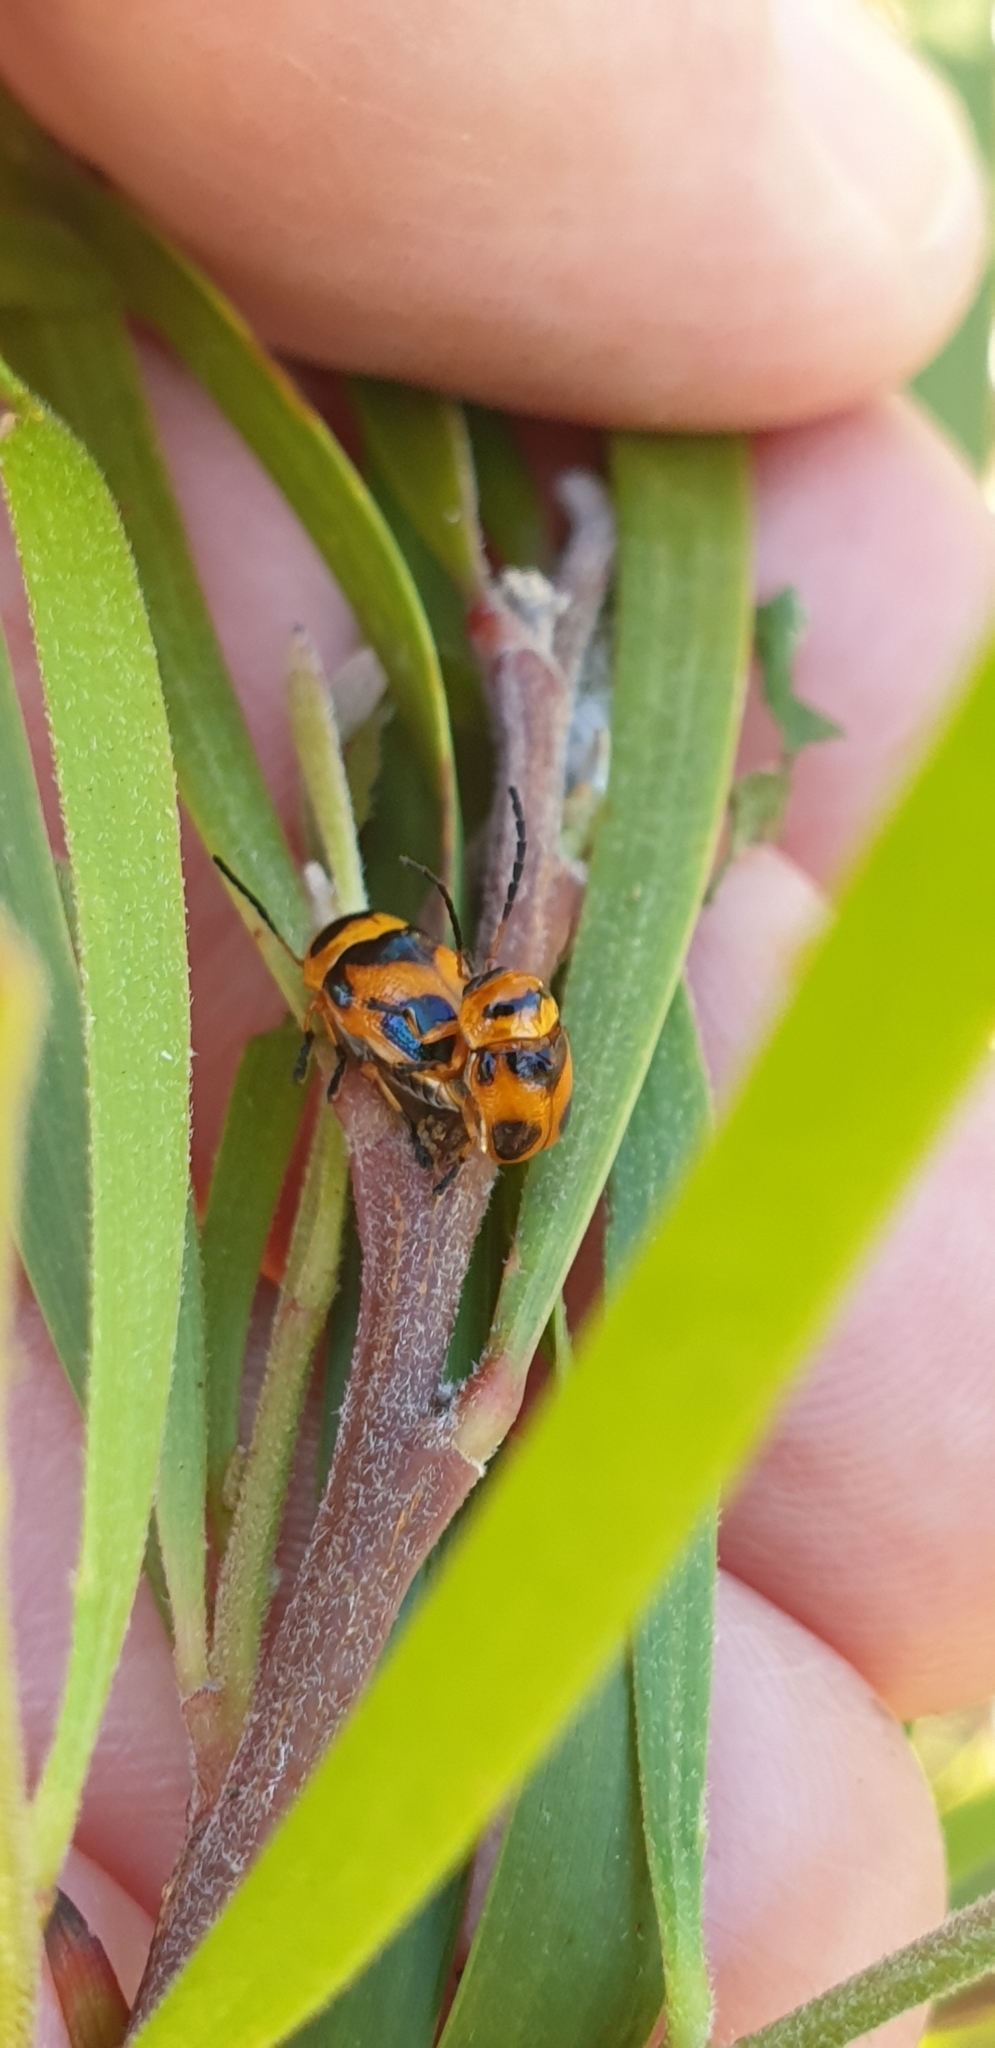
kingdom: Animalia
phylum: Arthropoda
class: Insecta
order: Coleoptera
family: Chrysomelidae
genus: Aporocera
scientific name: Aporocera
